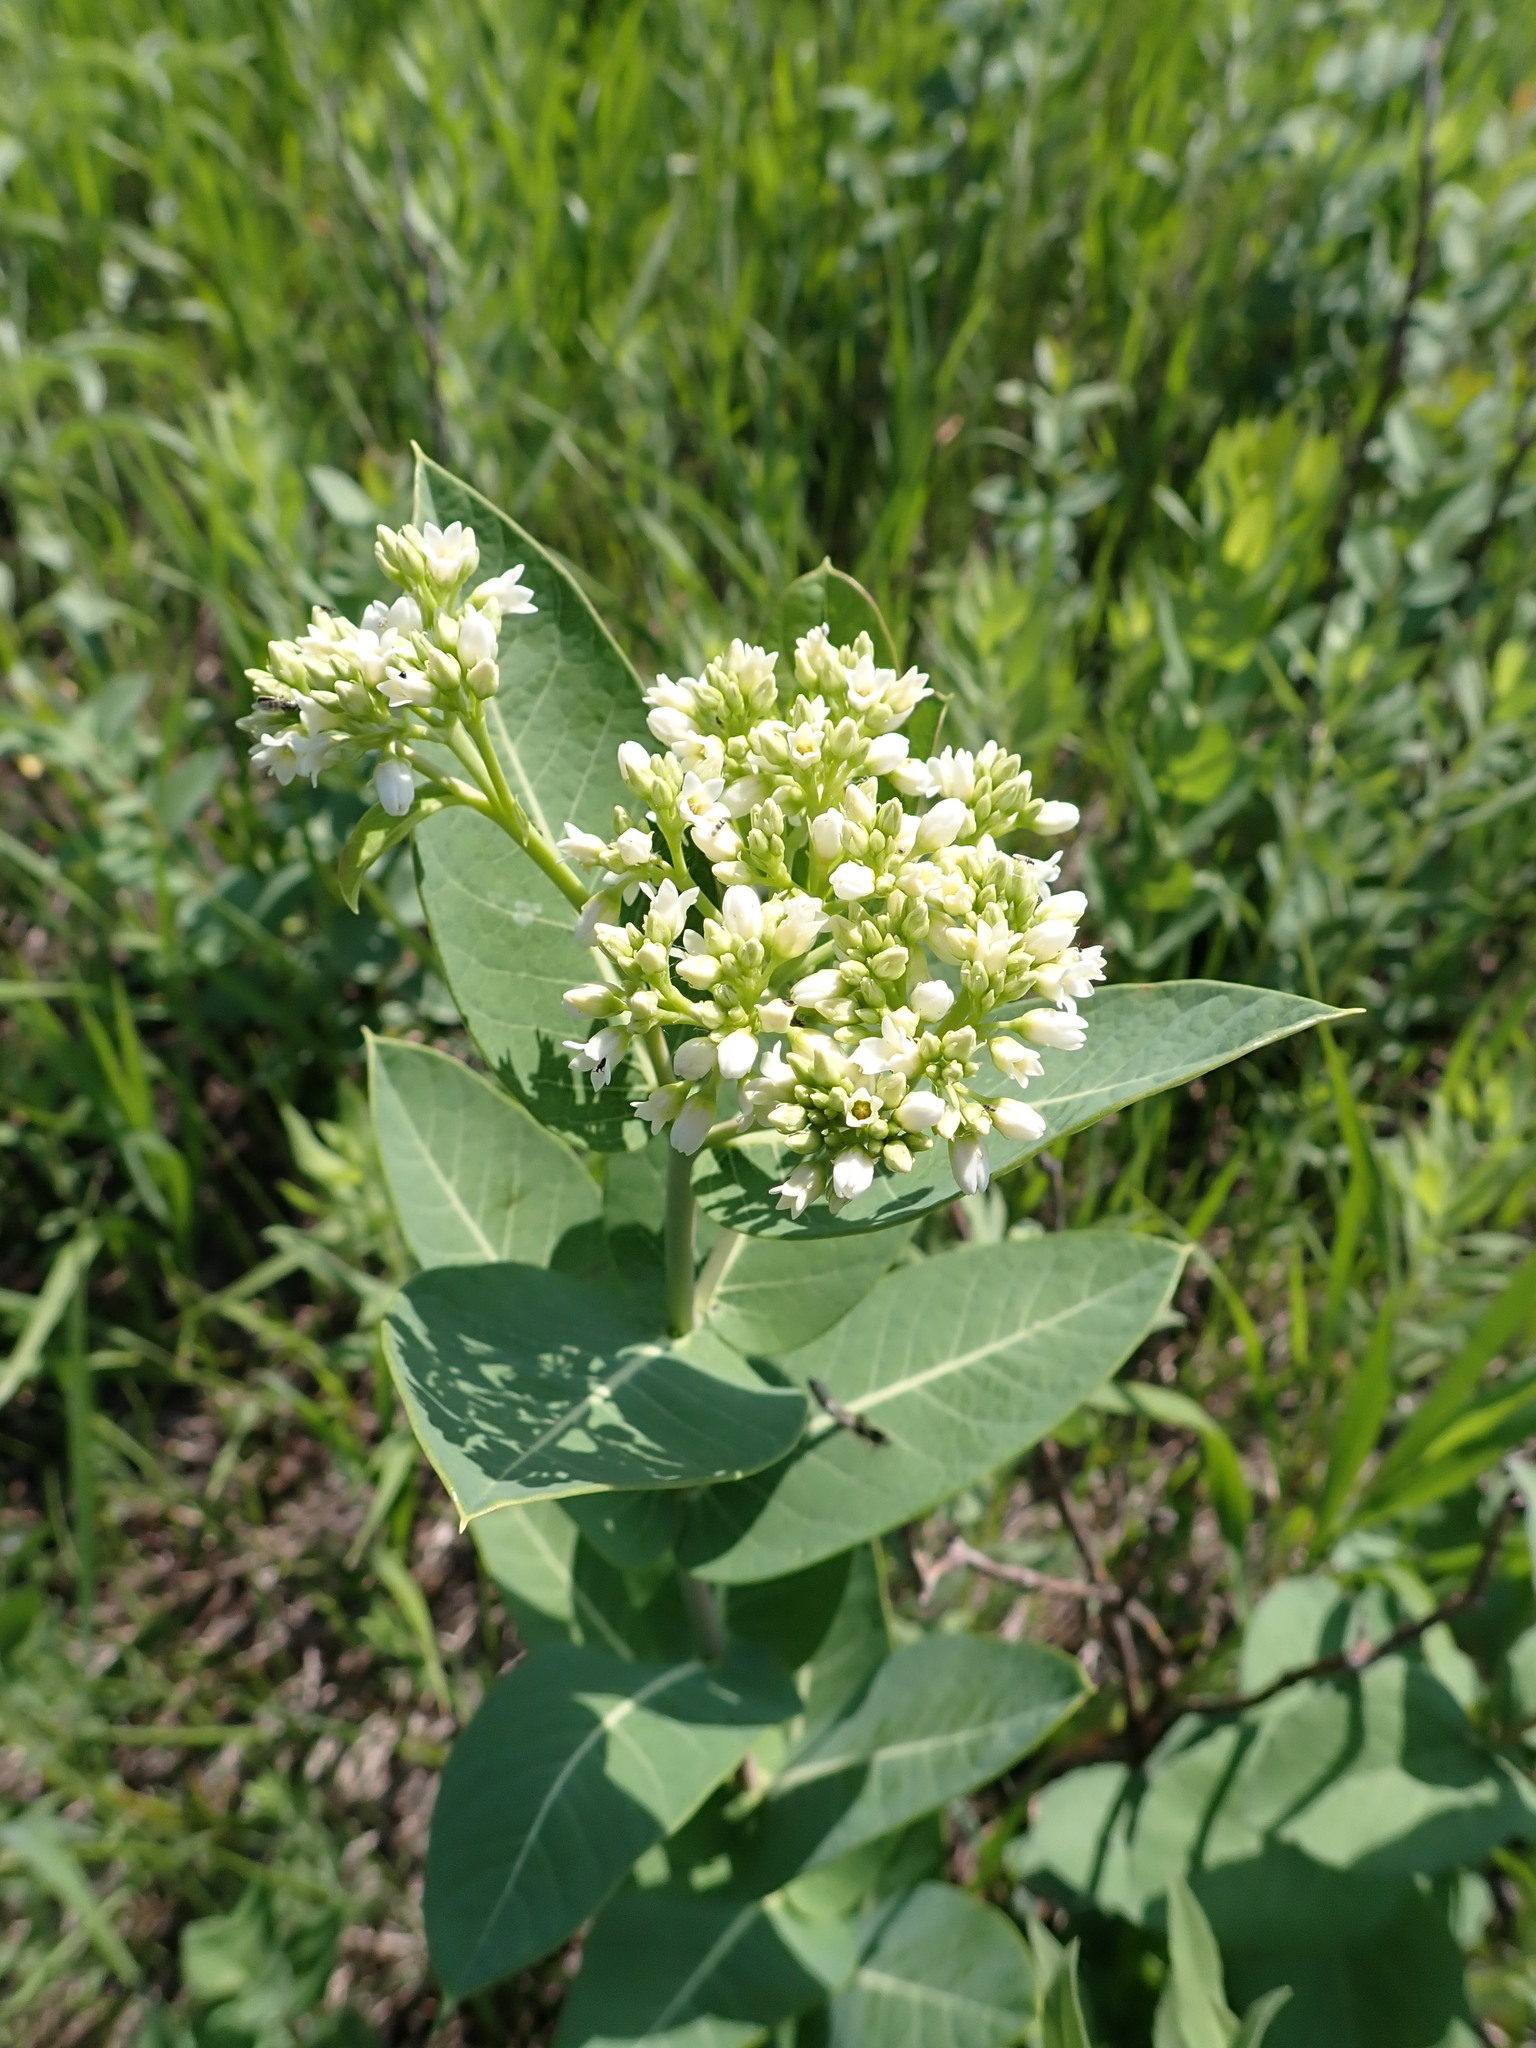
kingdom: Plantae
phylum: Tracheophyta
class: Magnoliopsida
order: Gentianales
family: Apocynaceae
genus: Apocynum
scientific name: Apocynum cannabinum
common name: Hemp dogbane
